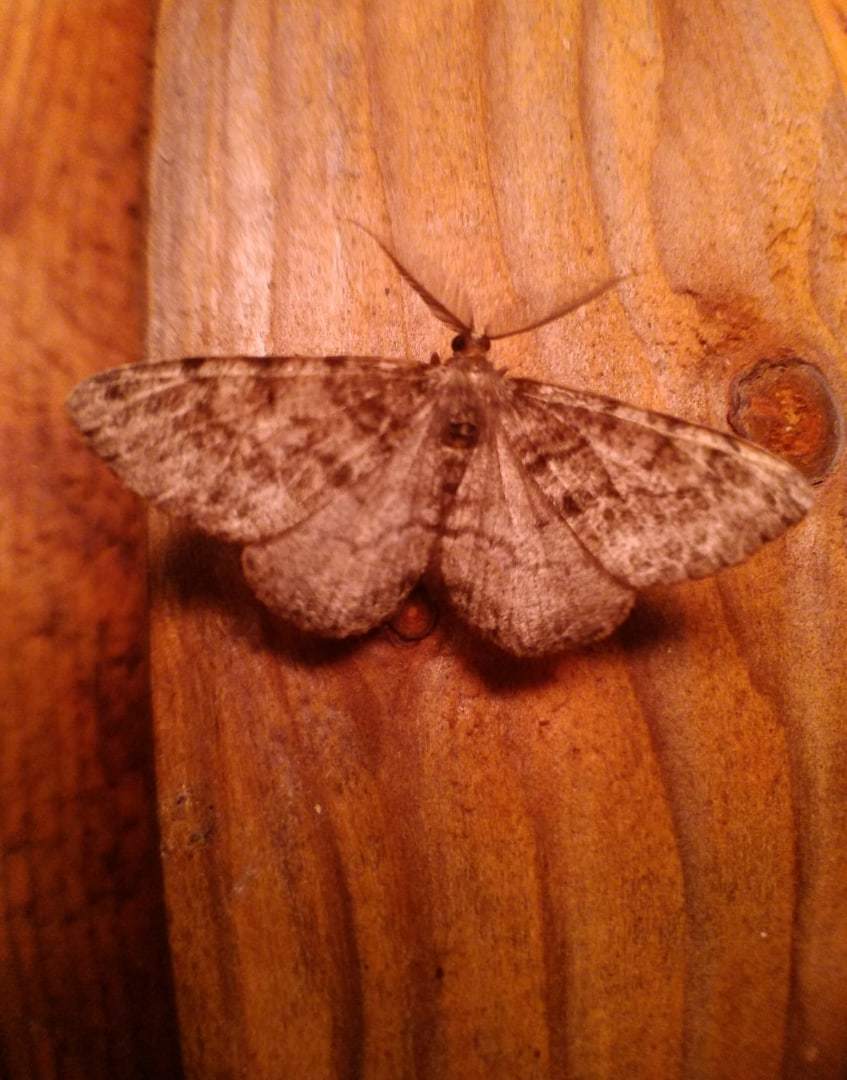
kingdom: Animalia
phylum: Arthropoda
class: Insecta
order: Lepidoptera
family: Geometridae
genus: Deileptenia
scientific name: Deileptenia ribeata
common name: Satin beauty
